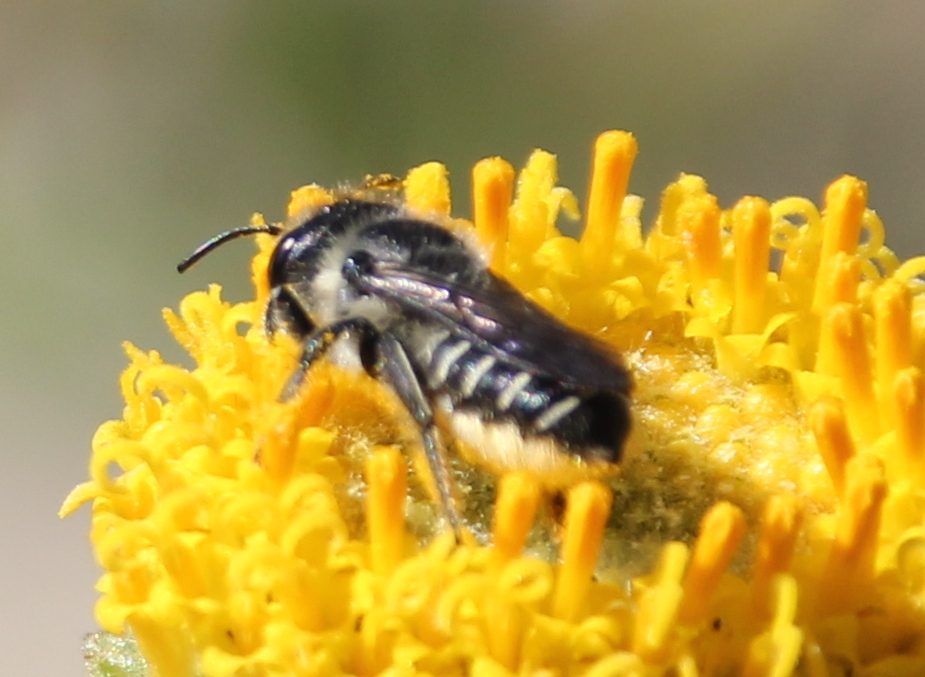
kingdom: Animalia
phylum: Arthropoda
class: Insecta
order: Hymenoptera
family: Megachilidae
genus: Megachile
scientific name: Megachile
